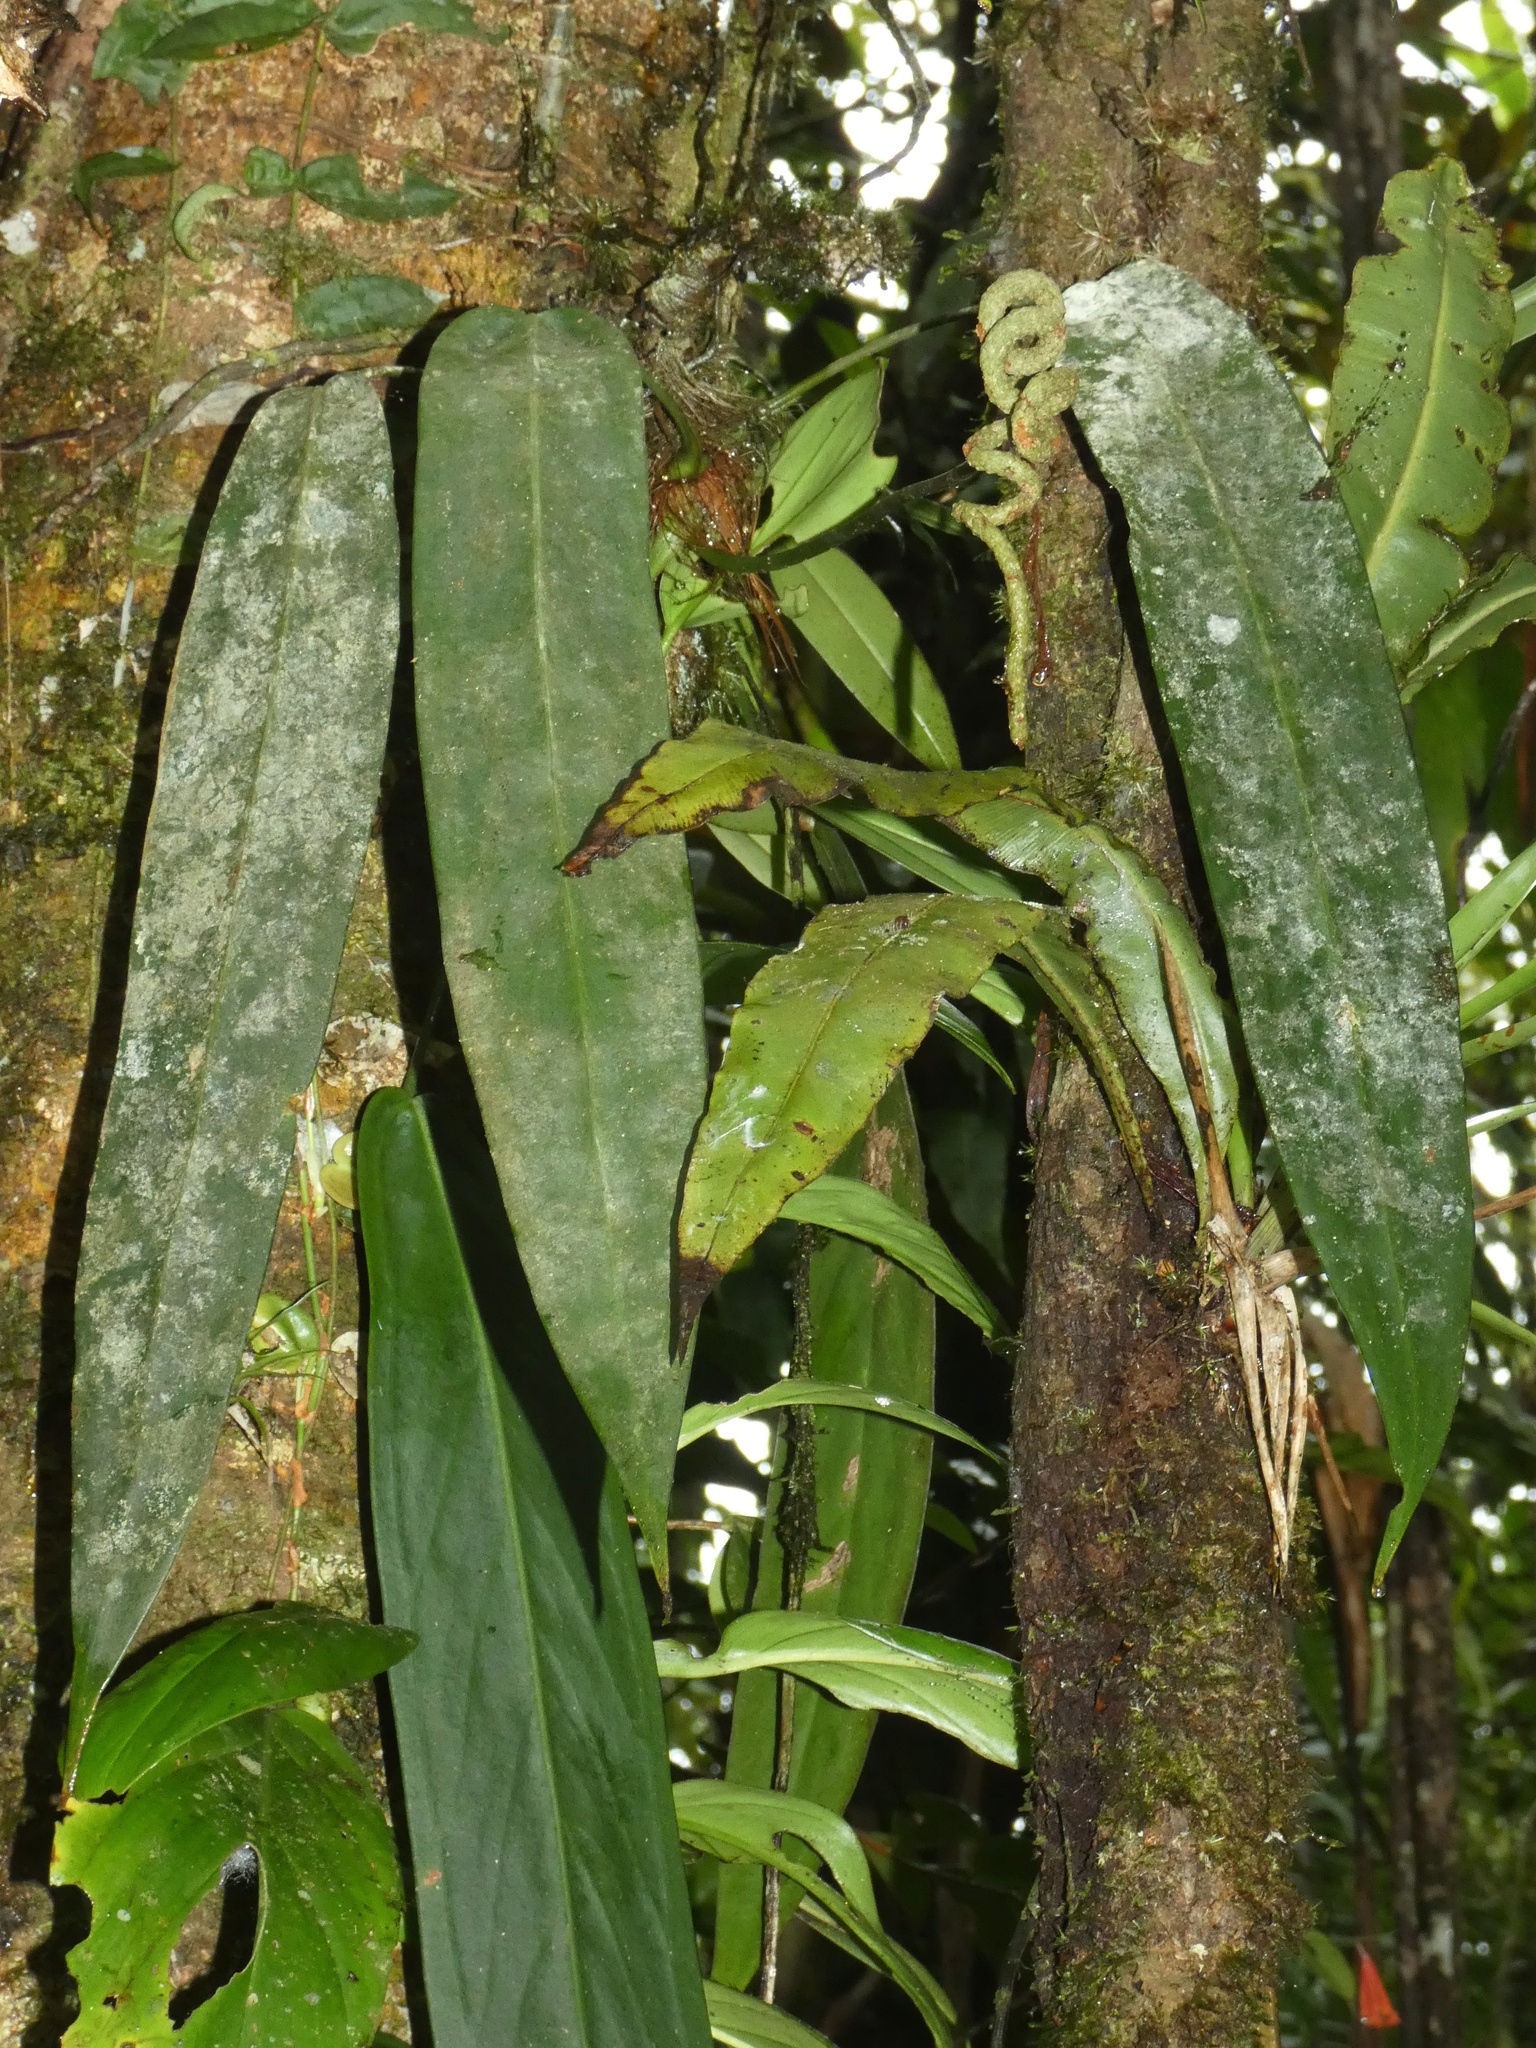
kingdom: Plantae
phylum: Tracheophyta
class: Liliopsida
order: Alismatales
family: Araceae
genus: Anthurium
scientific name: Anthurium wendlingeri
